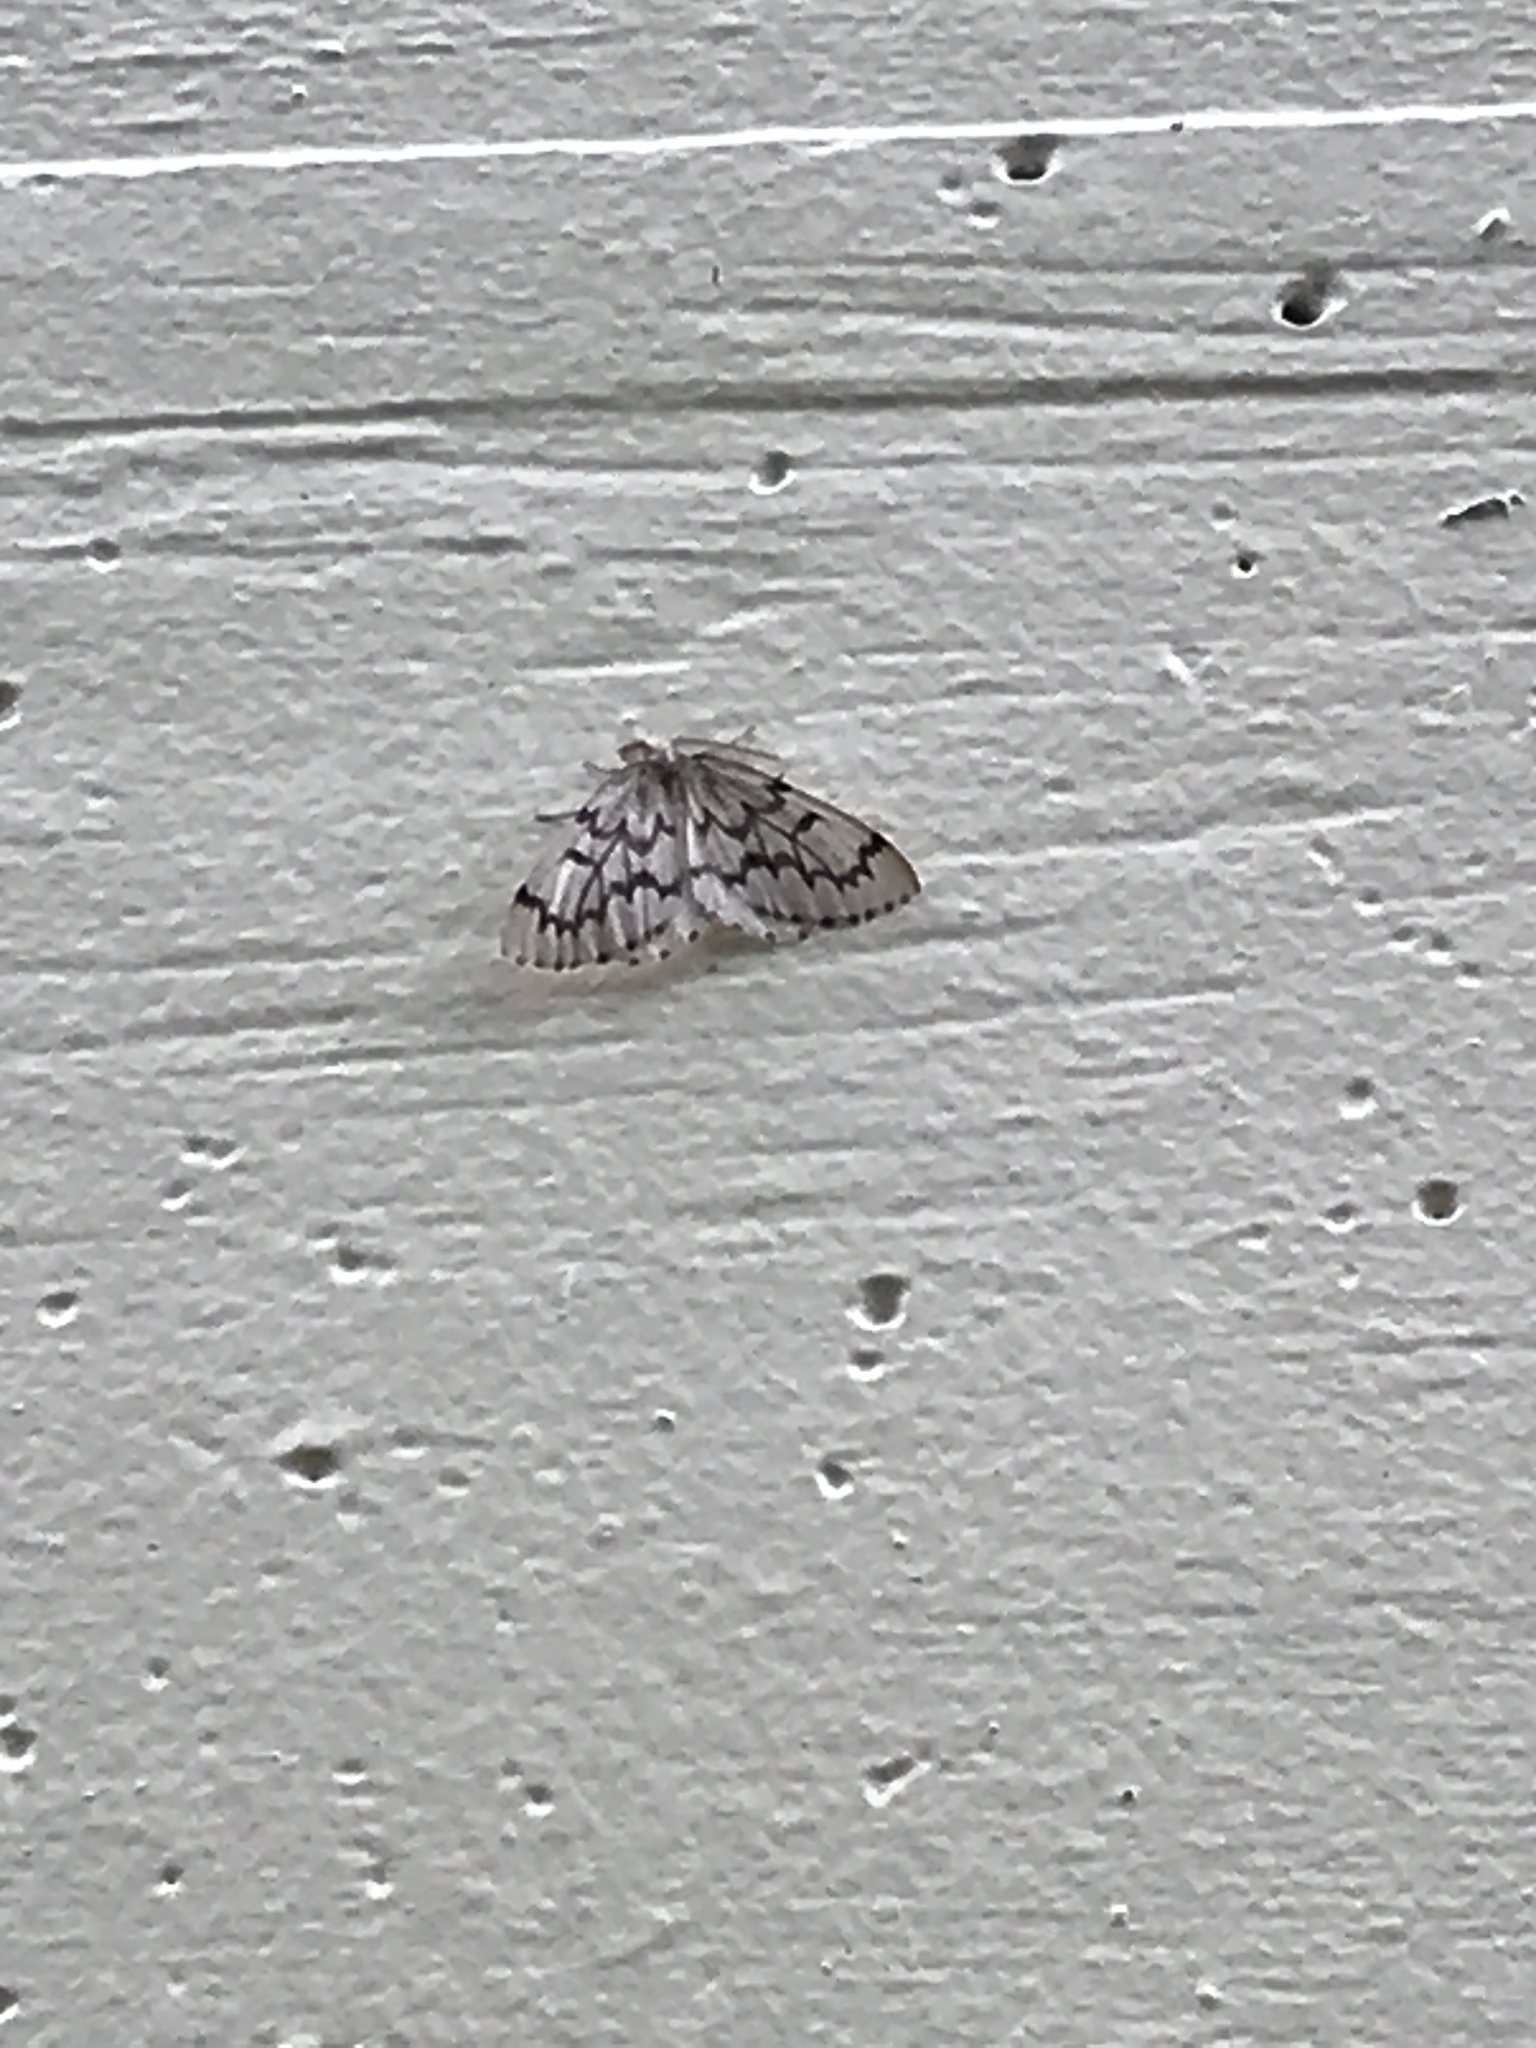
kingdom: Animalia
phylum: Arthropoda
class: Insecta
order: Lepidoptera
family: Geometridae
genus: Nepytia
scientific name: Nepytia phantasmaria
